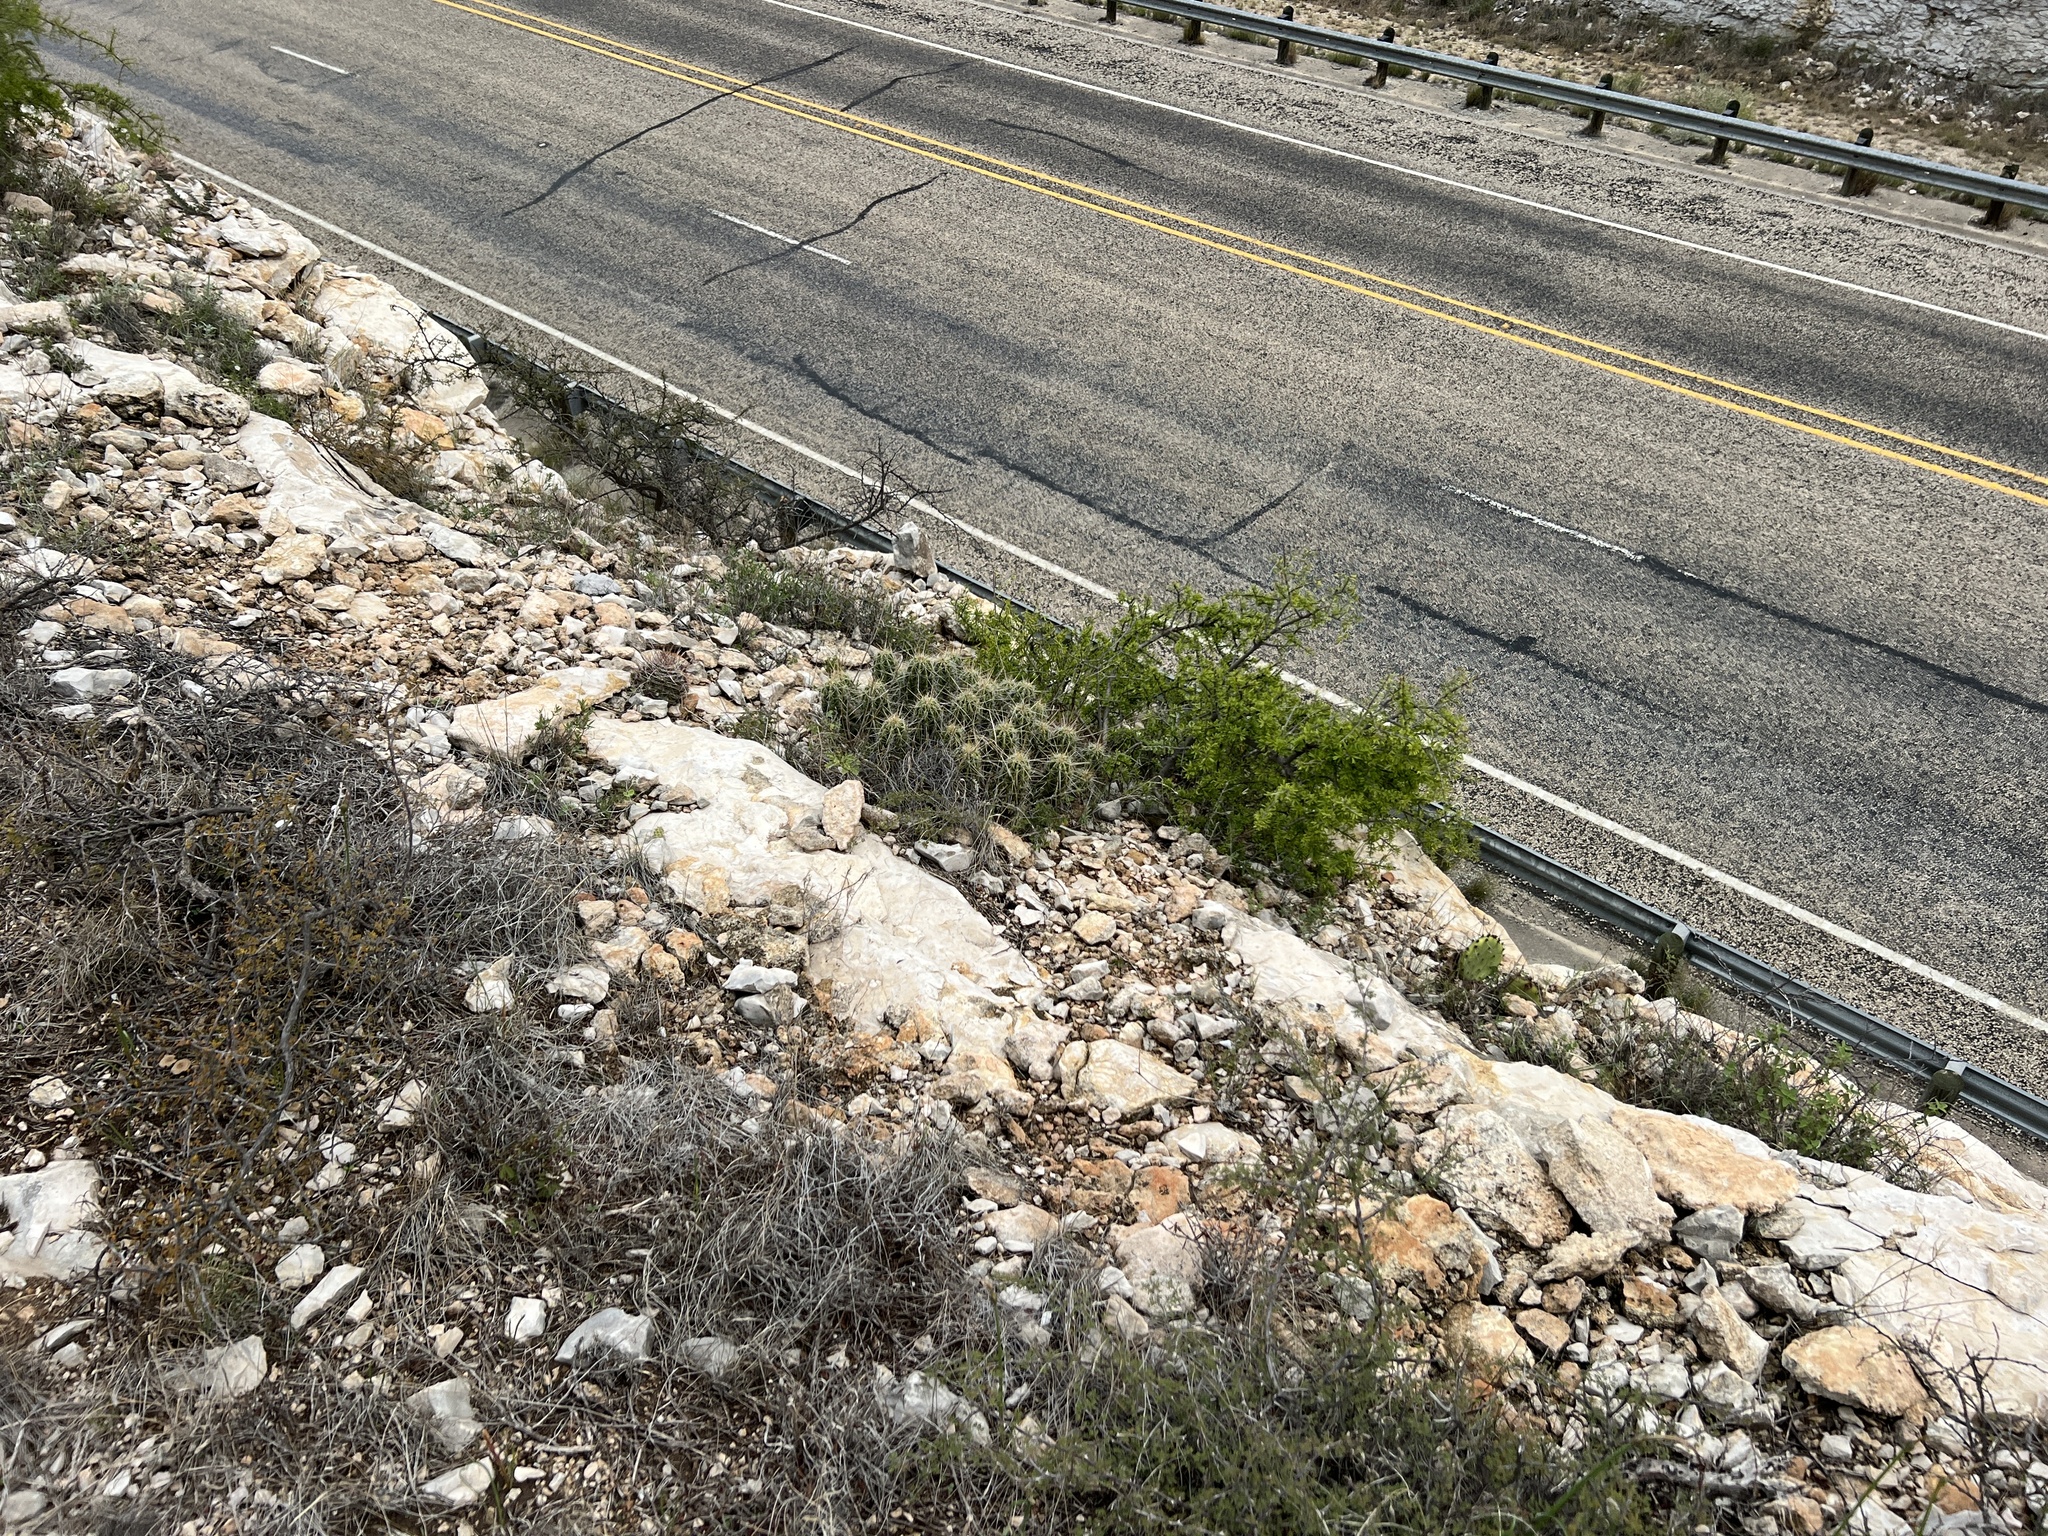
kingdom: Plantae
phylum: Tracheophyta
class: Magnoliopsida
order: Caryophyllales
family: Cactaceae
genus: Echinocereus
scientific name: Echinocereus enneacanthus
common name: Pitaya
